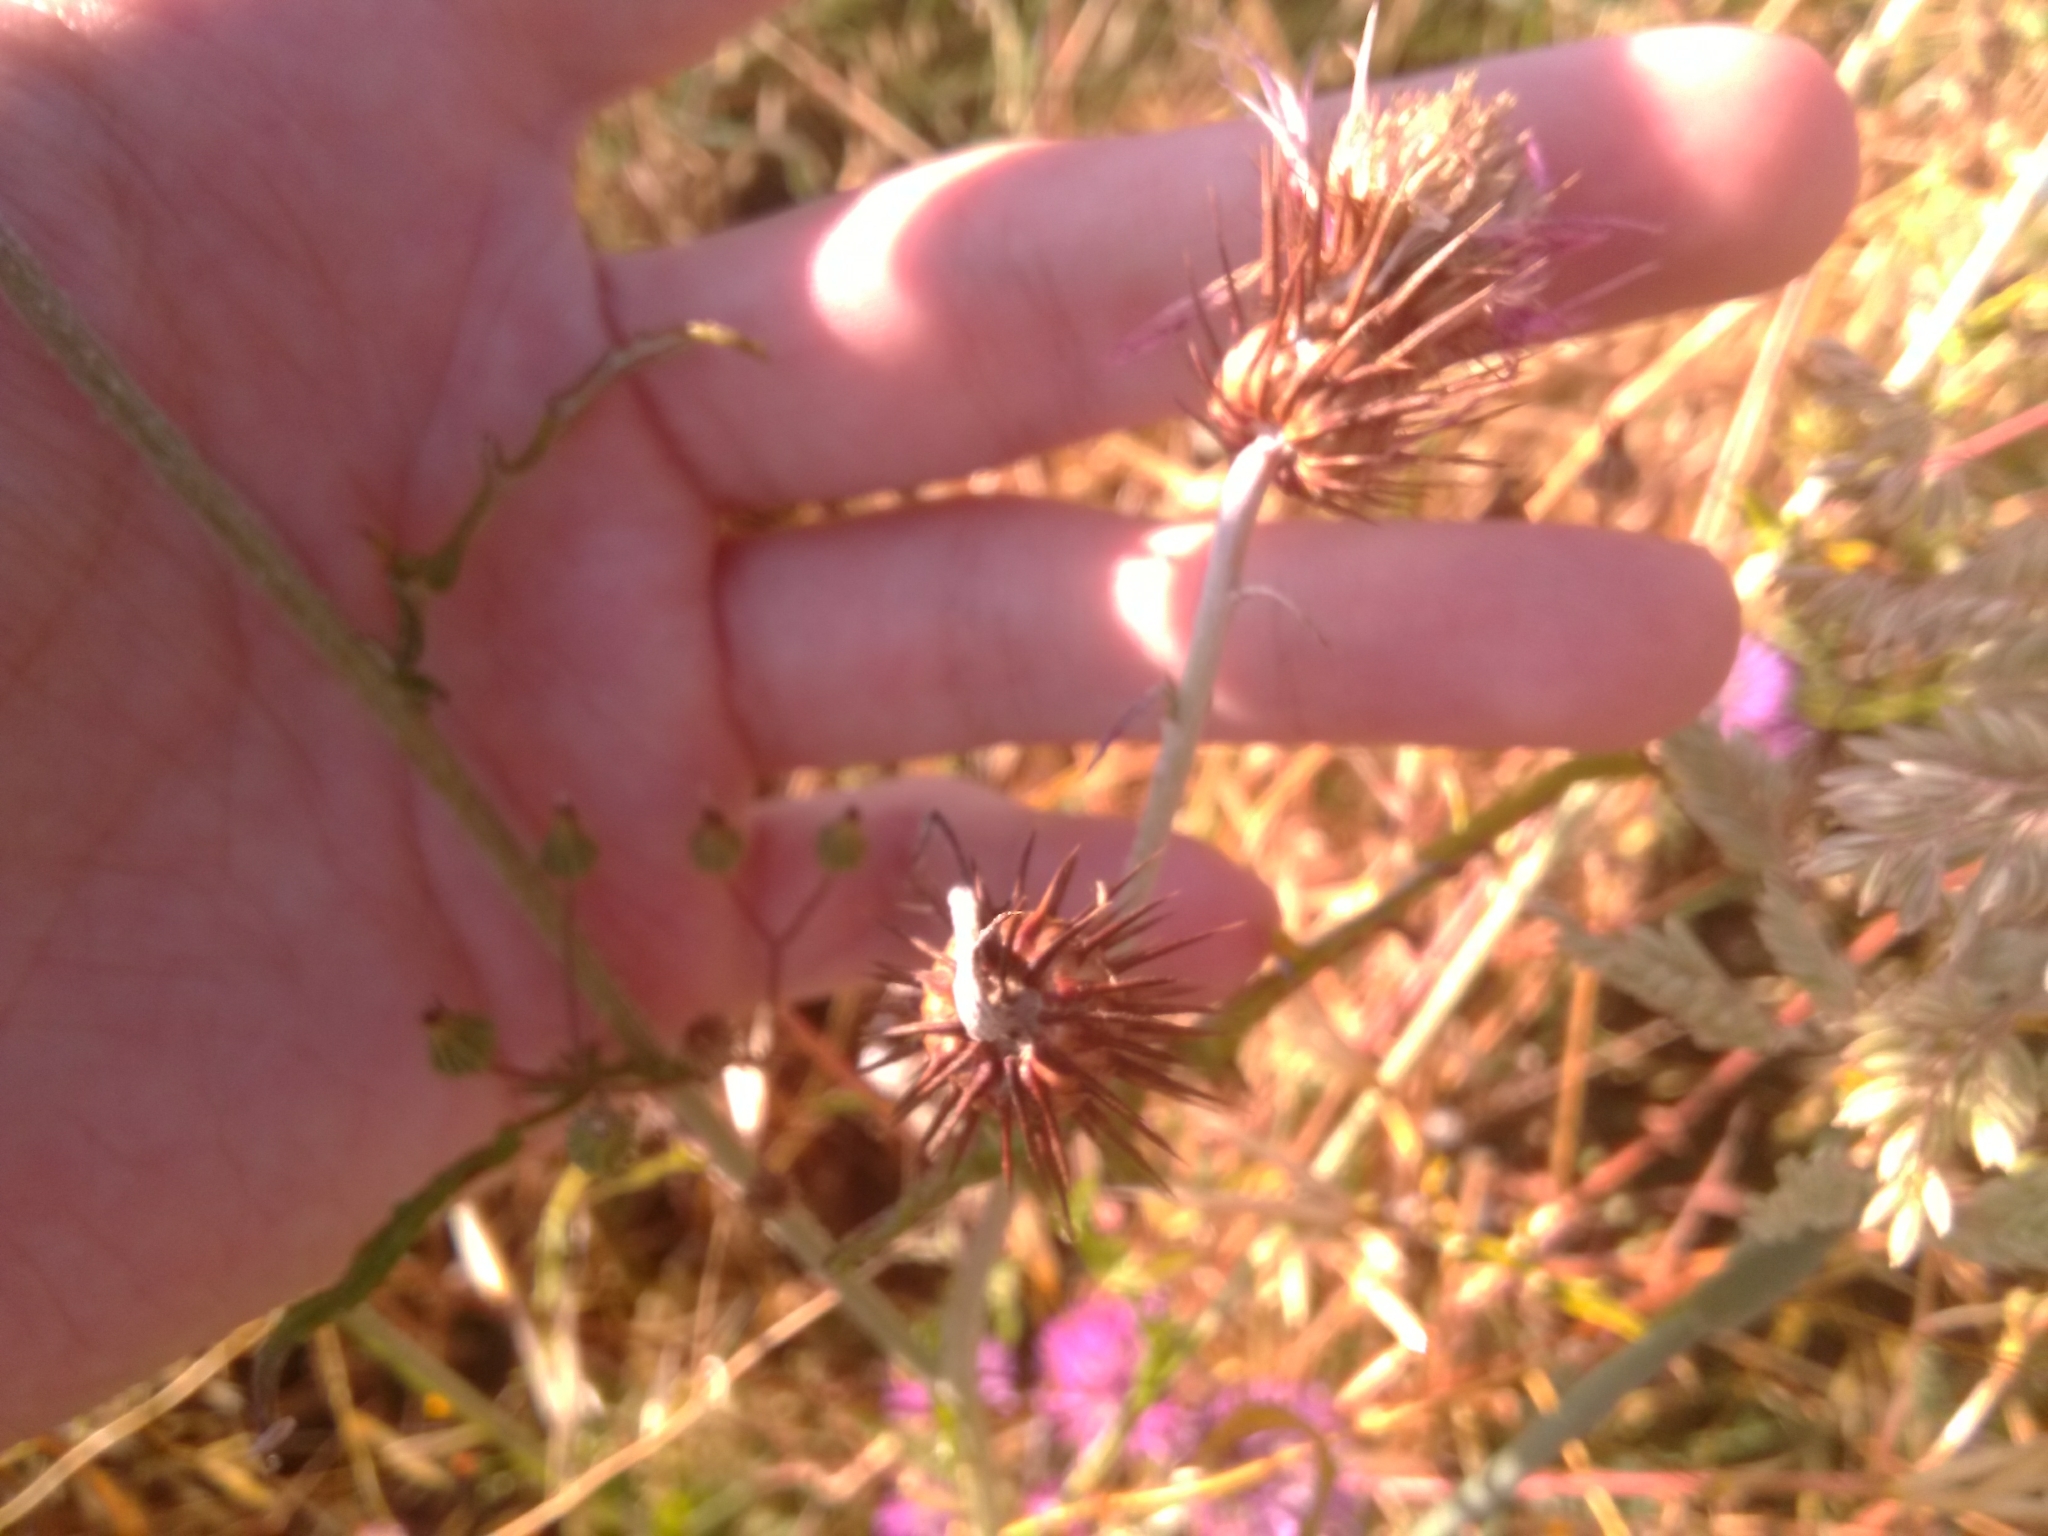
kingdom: Plantae
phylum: Tracheophyta
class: Magnoliopsida
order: Asterales
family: Asteraceae
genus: Galactites
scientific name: Galactites tomentosa
